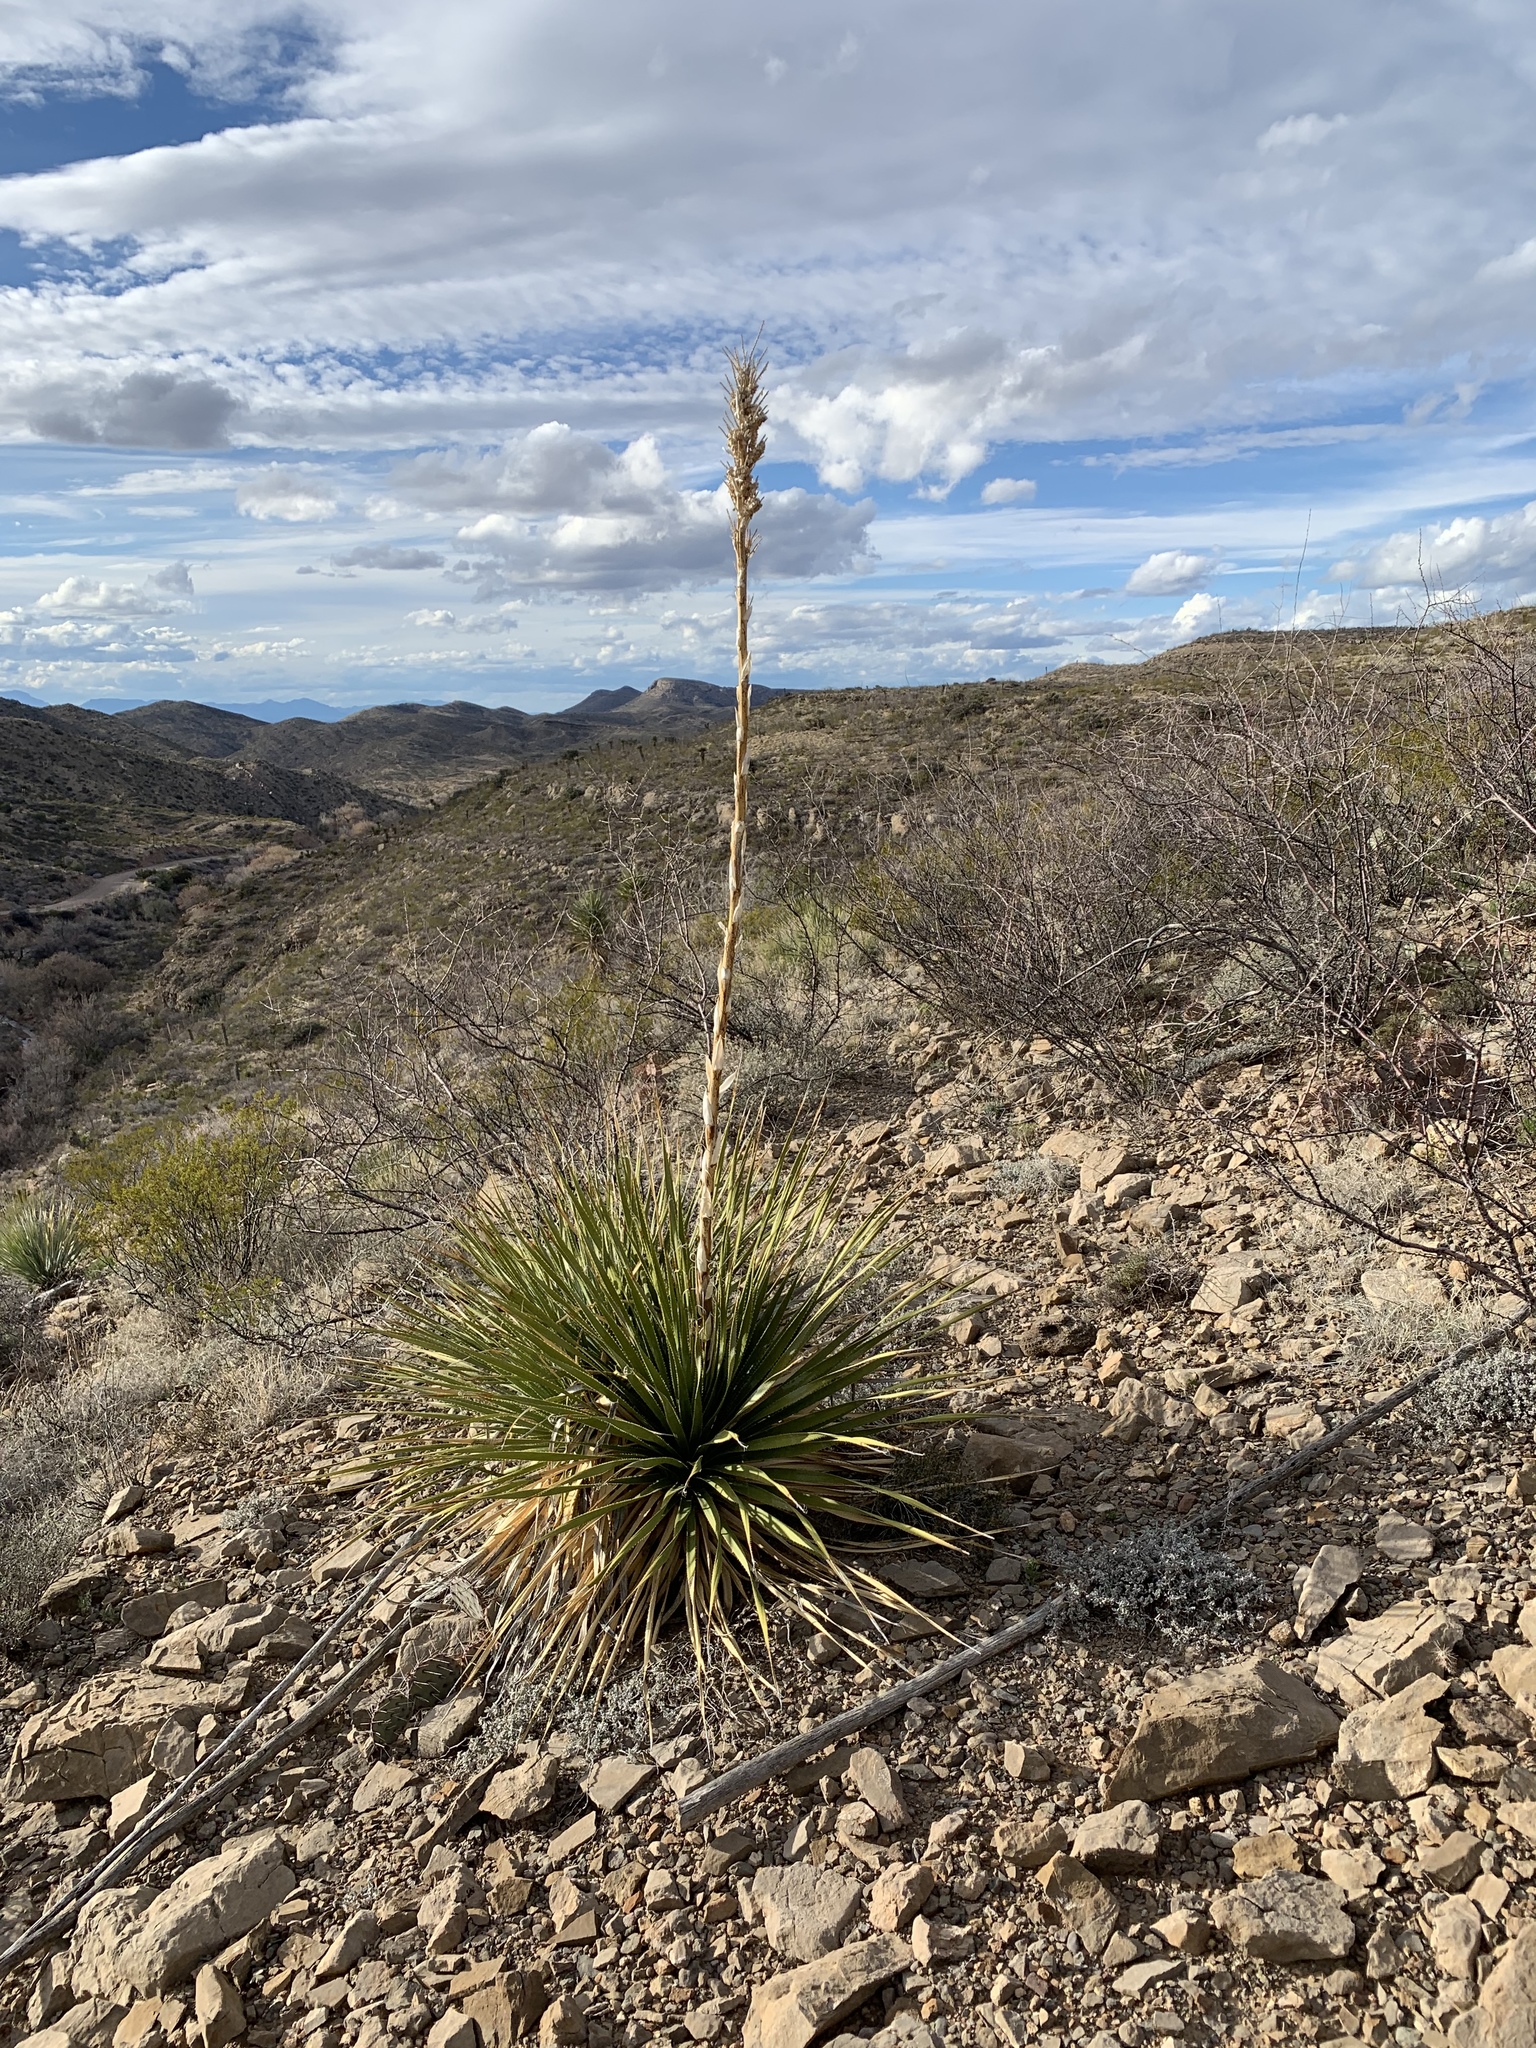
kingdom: Plantae
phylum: Tracheophyta
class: Liliopsida
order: Asparagales
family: Asparagaceae
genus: Dasylirion
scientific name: Dasylirion wheeleri
